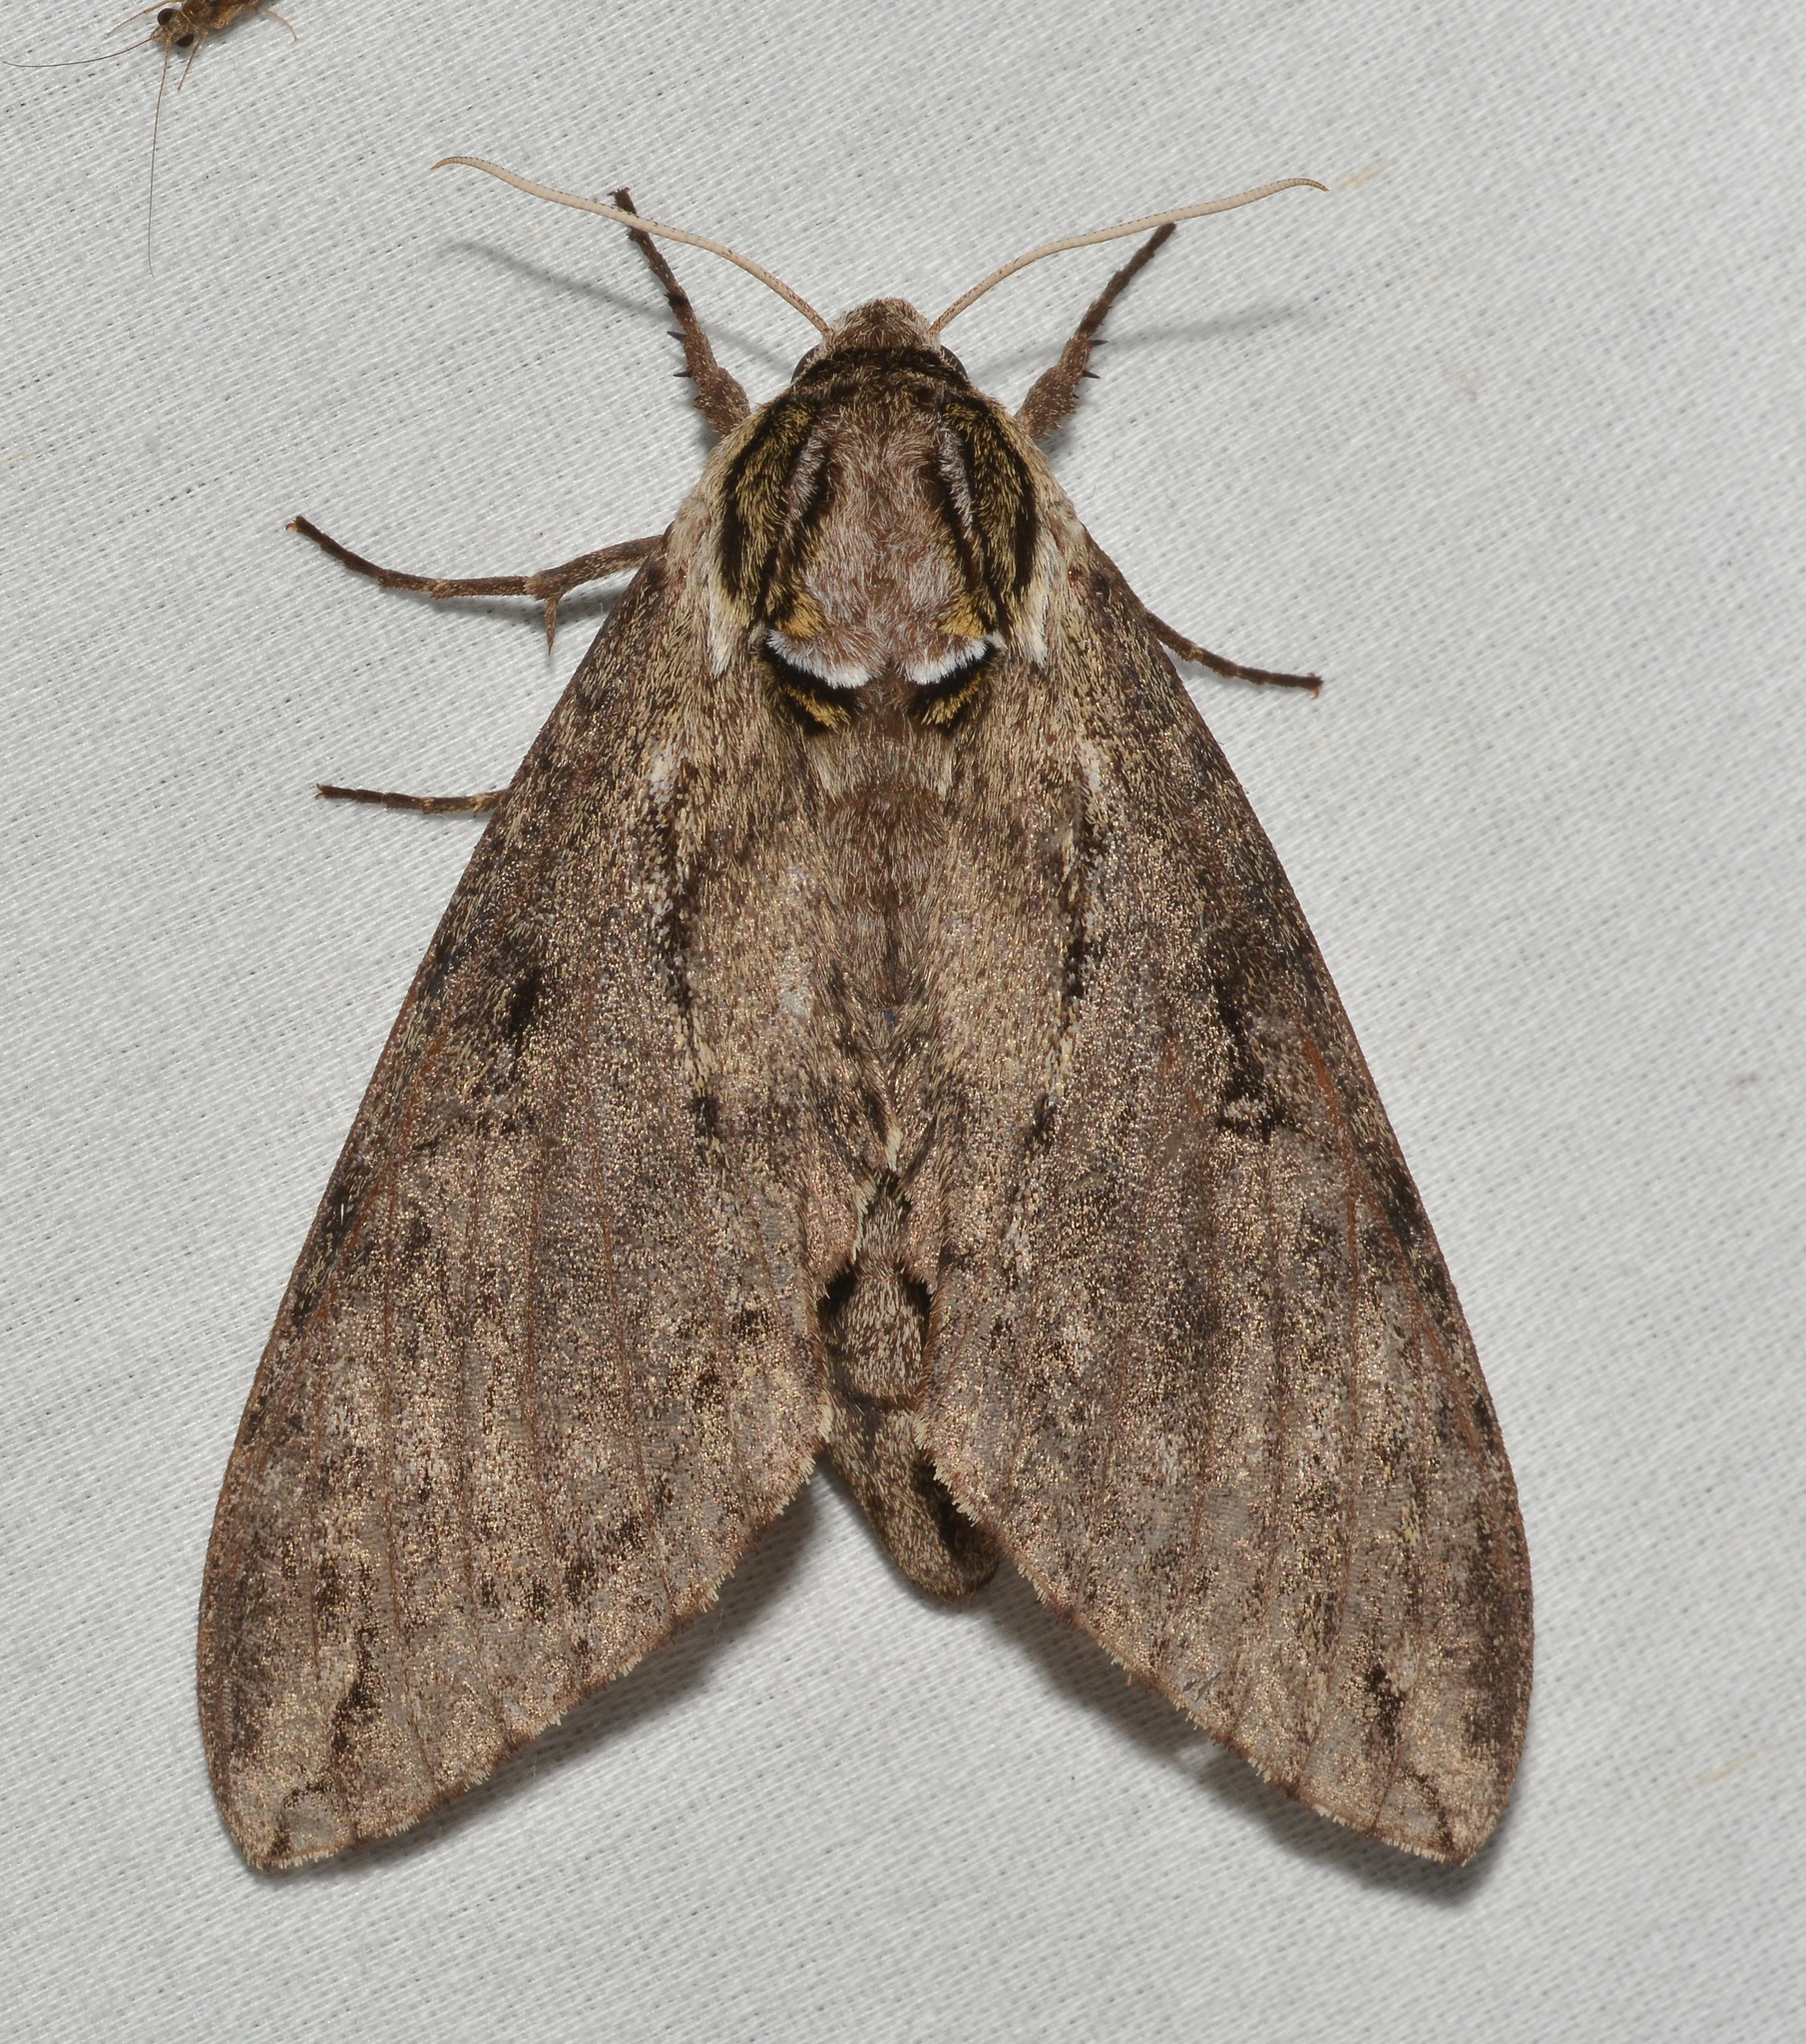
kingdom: Animalia
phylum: Arthropoda
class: Insecta
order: Lepidoptera
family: Sphingidae
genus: Ceratomia
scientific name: Ceratomia catalpae
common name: Catalpa hornworm
